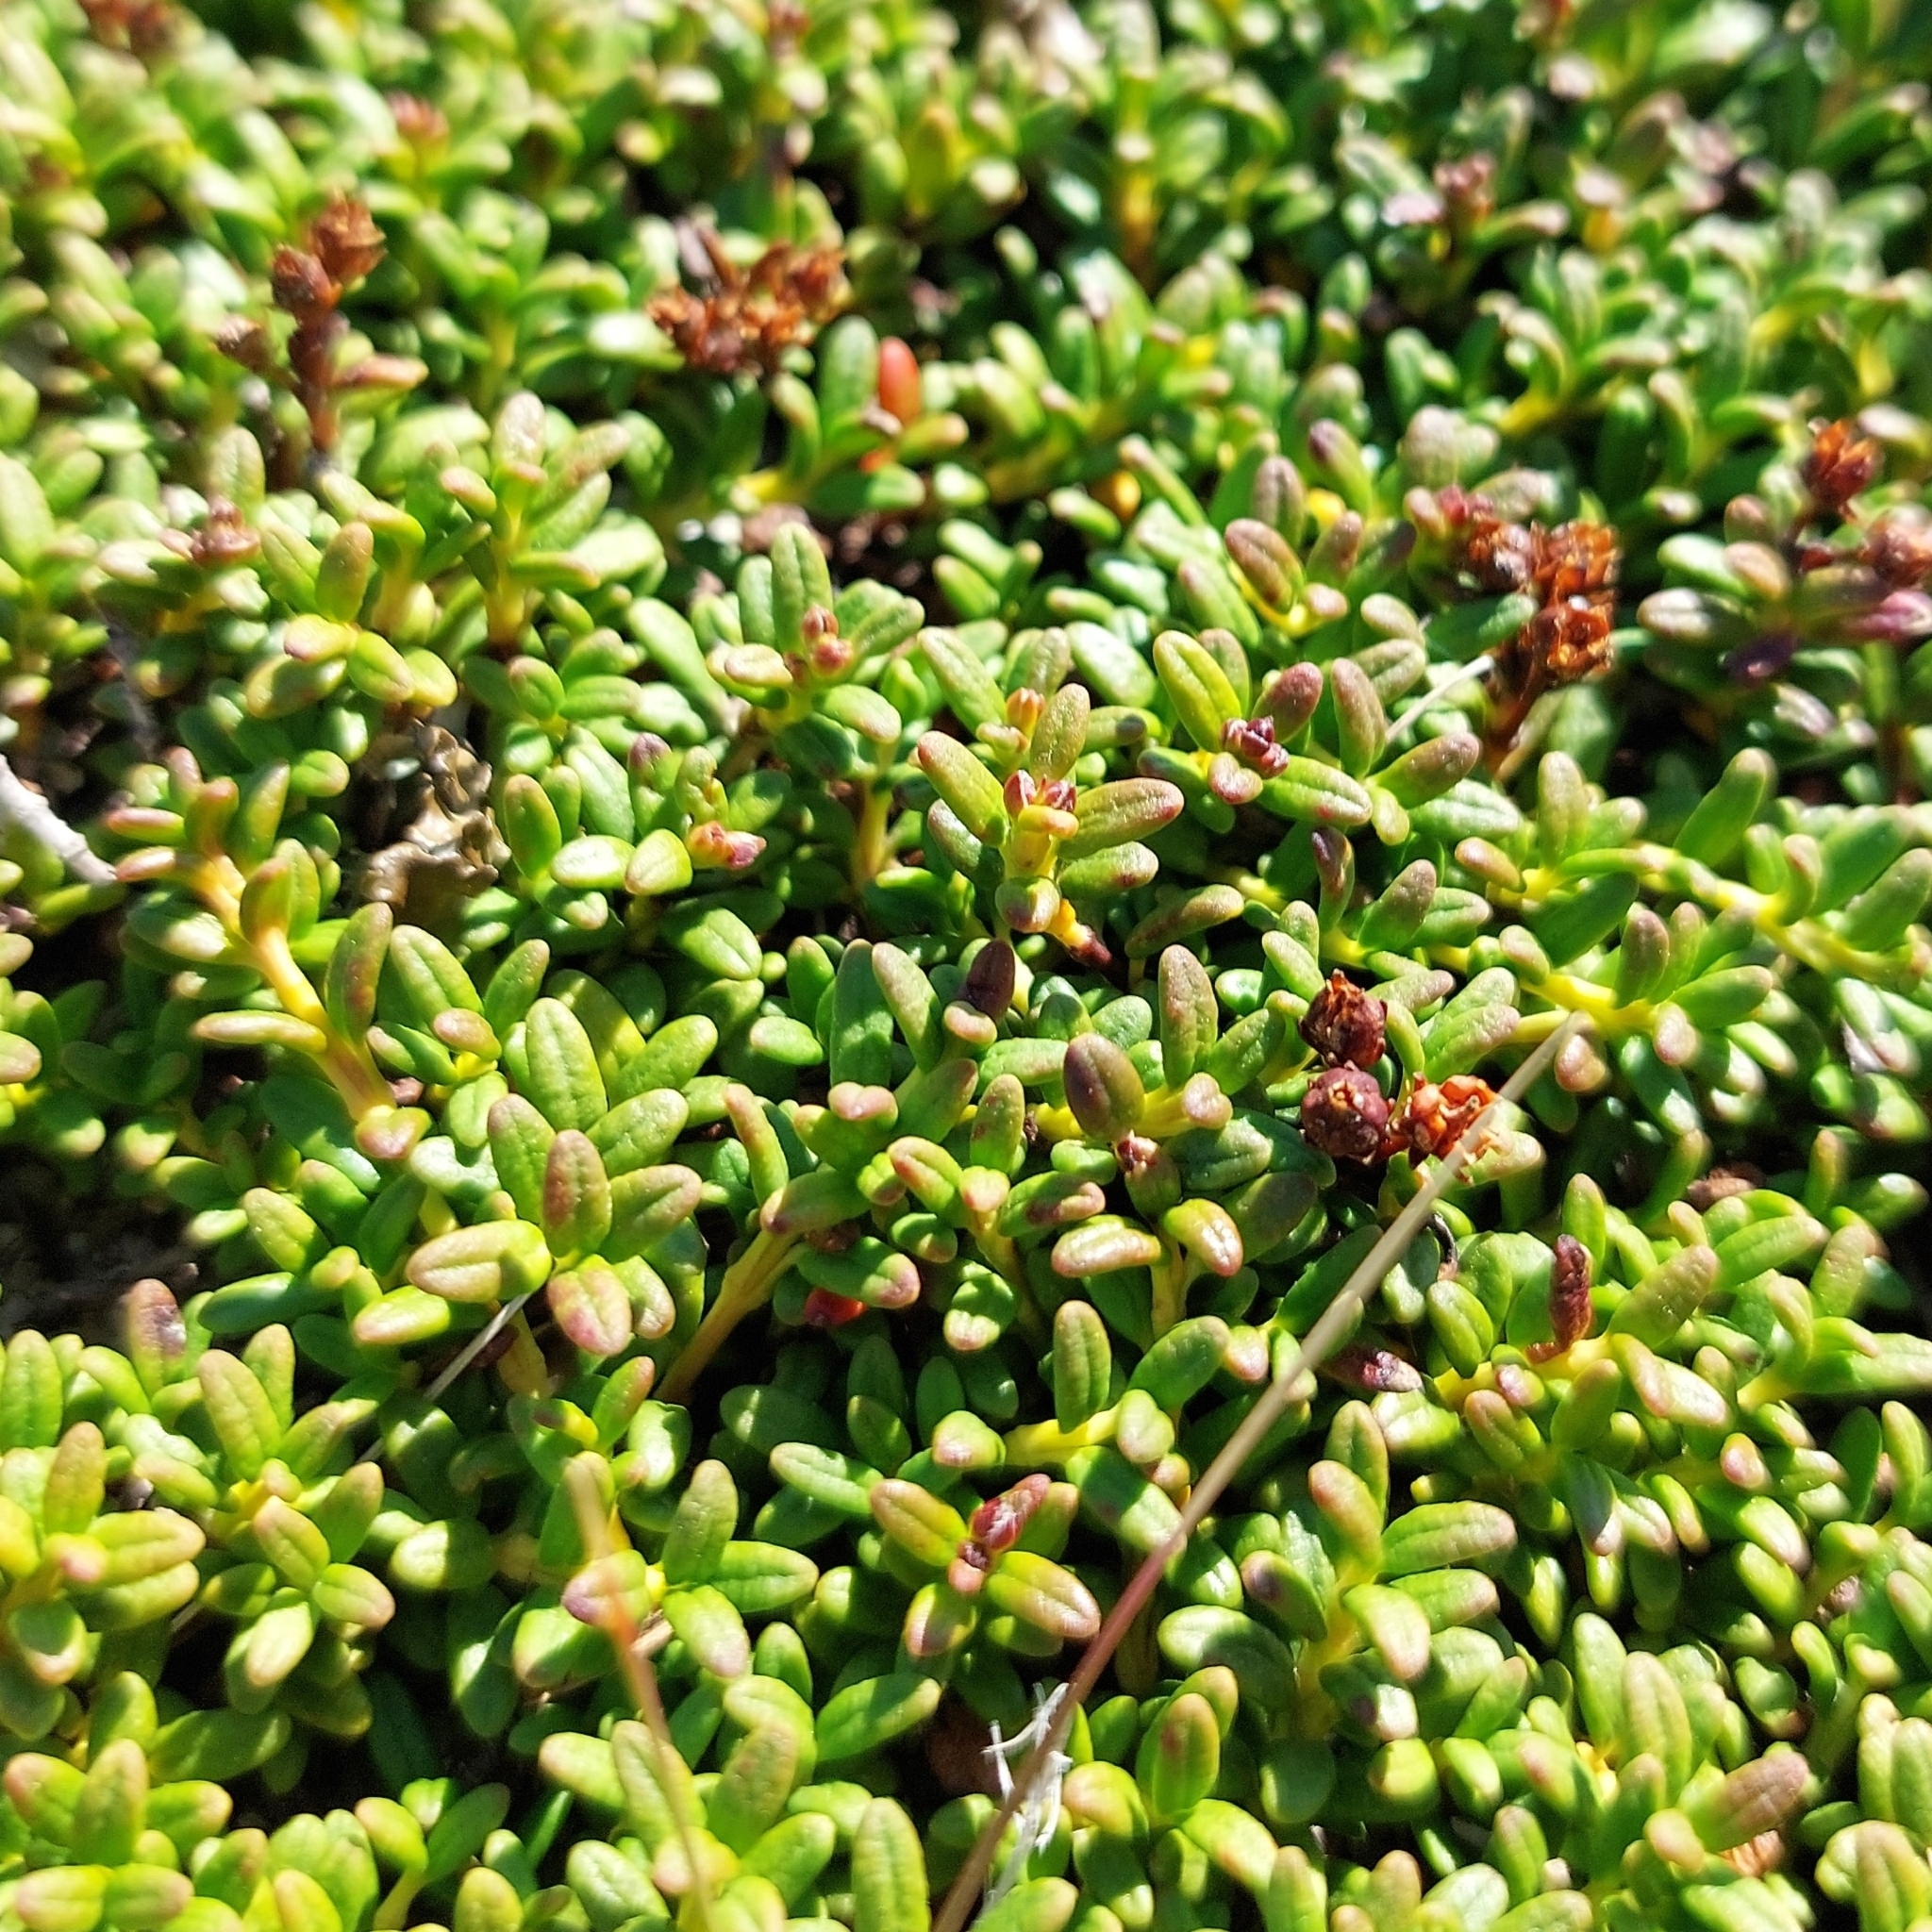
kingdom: Plantae
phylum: Tracheophyta
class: Magnoliopsida
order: Ericales
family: Ericaceae
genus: Kalmia
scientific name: Kalmia procumbens
